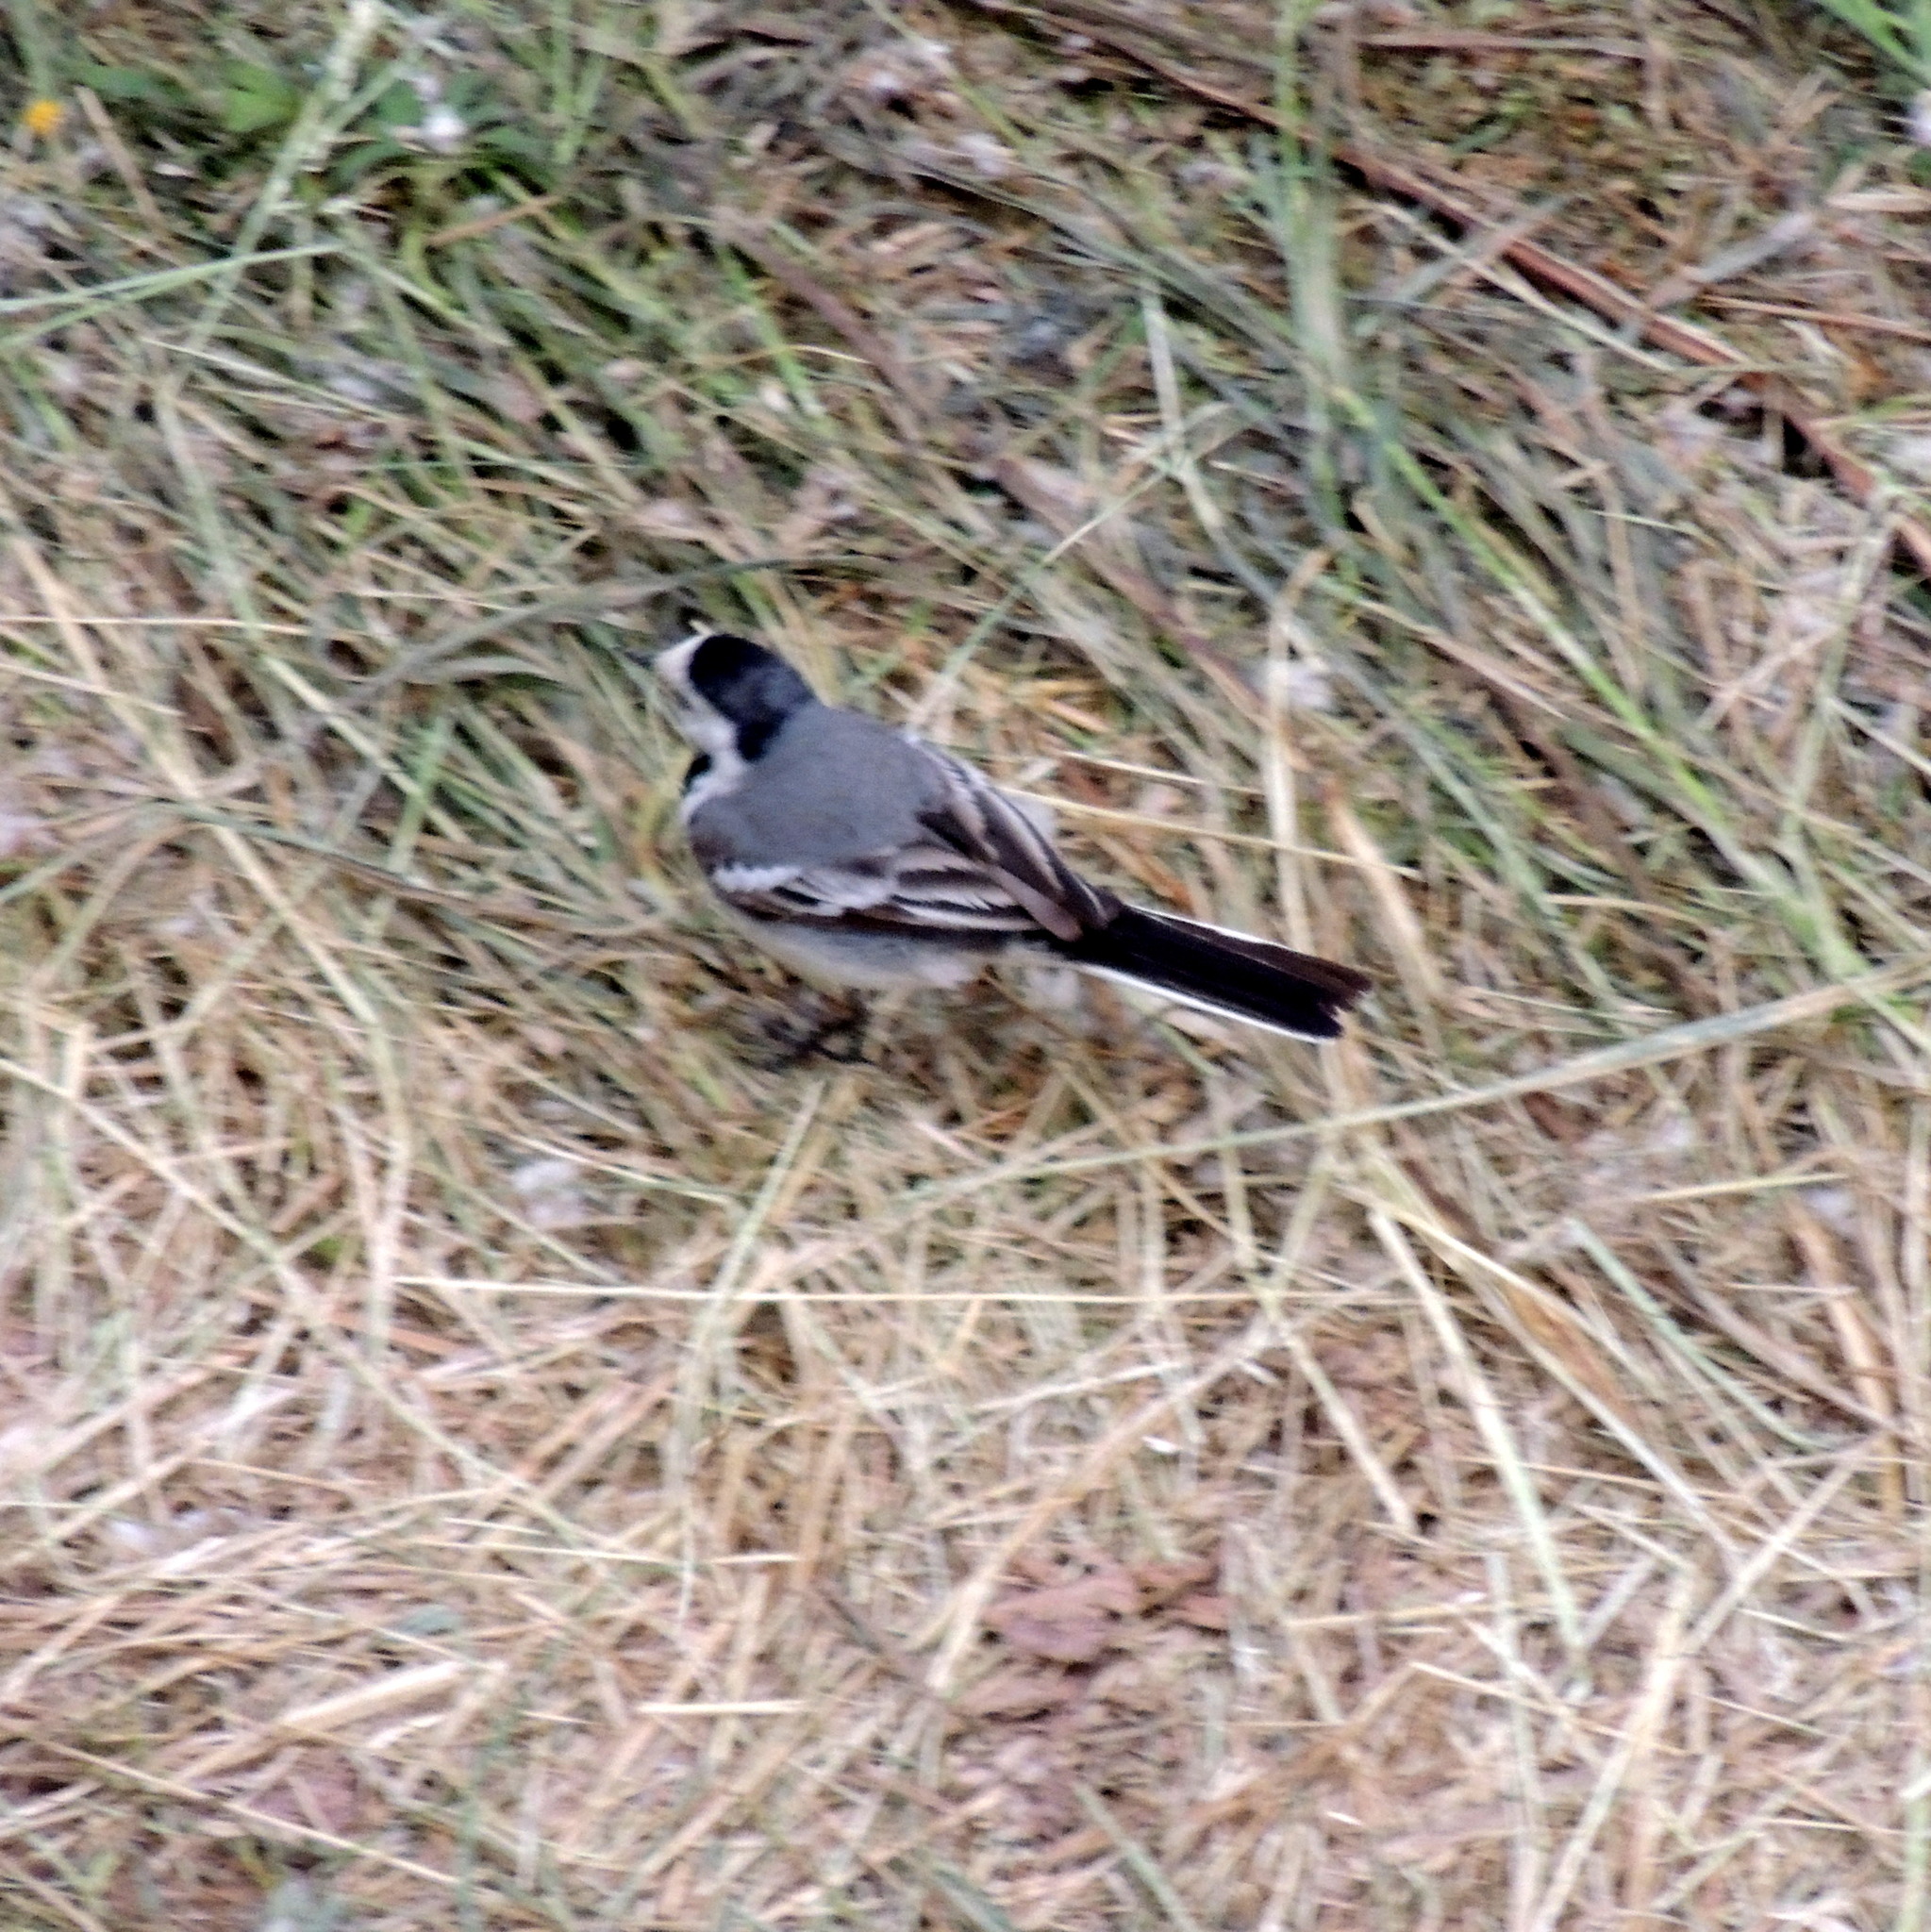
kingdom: Animalia
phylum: Chordata
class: Aves
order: Passeriformes
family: Motacillidae
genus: Motacilla
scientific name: Motacilla alba
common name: White wagtail
